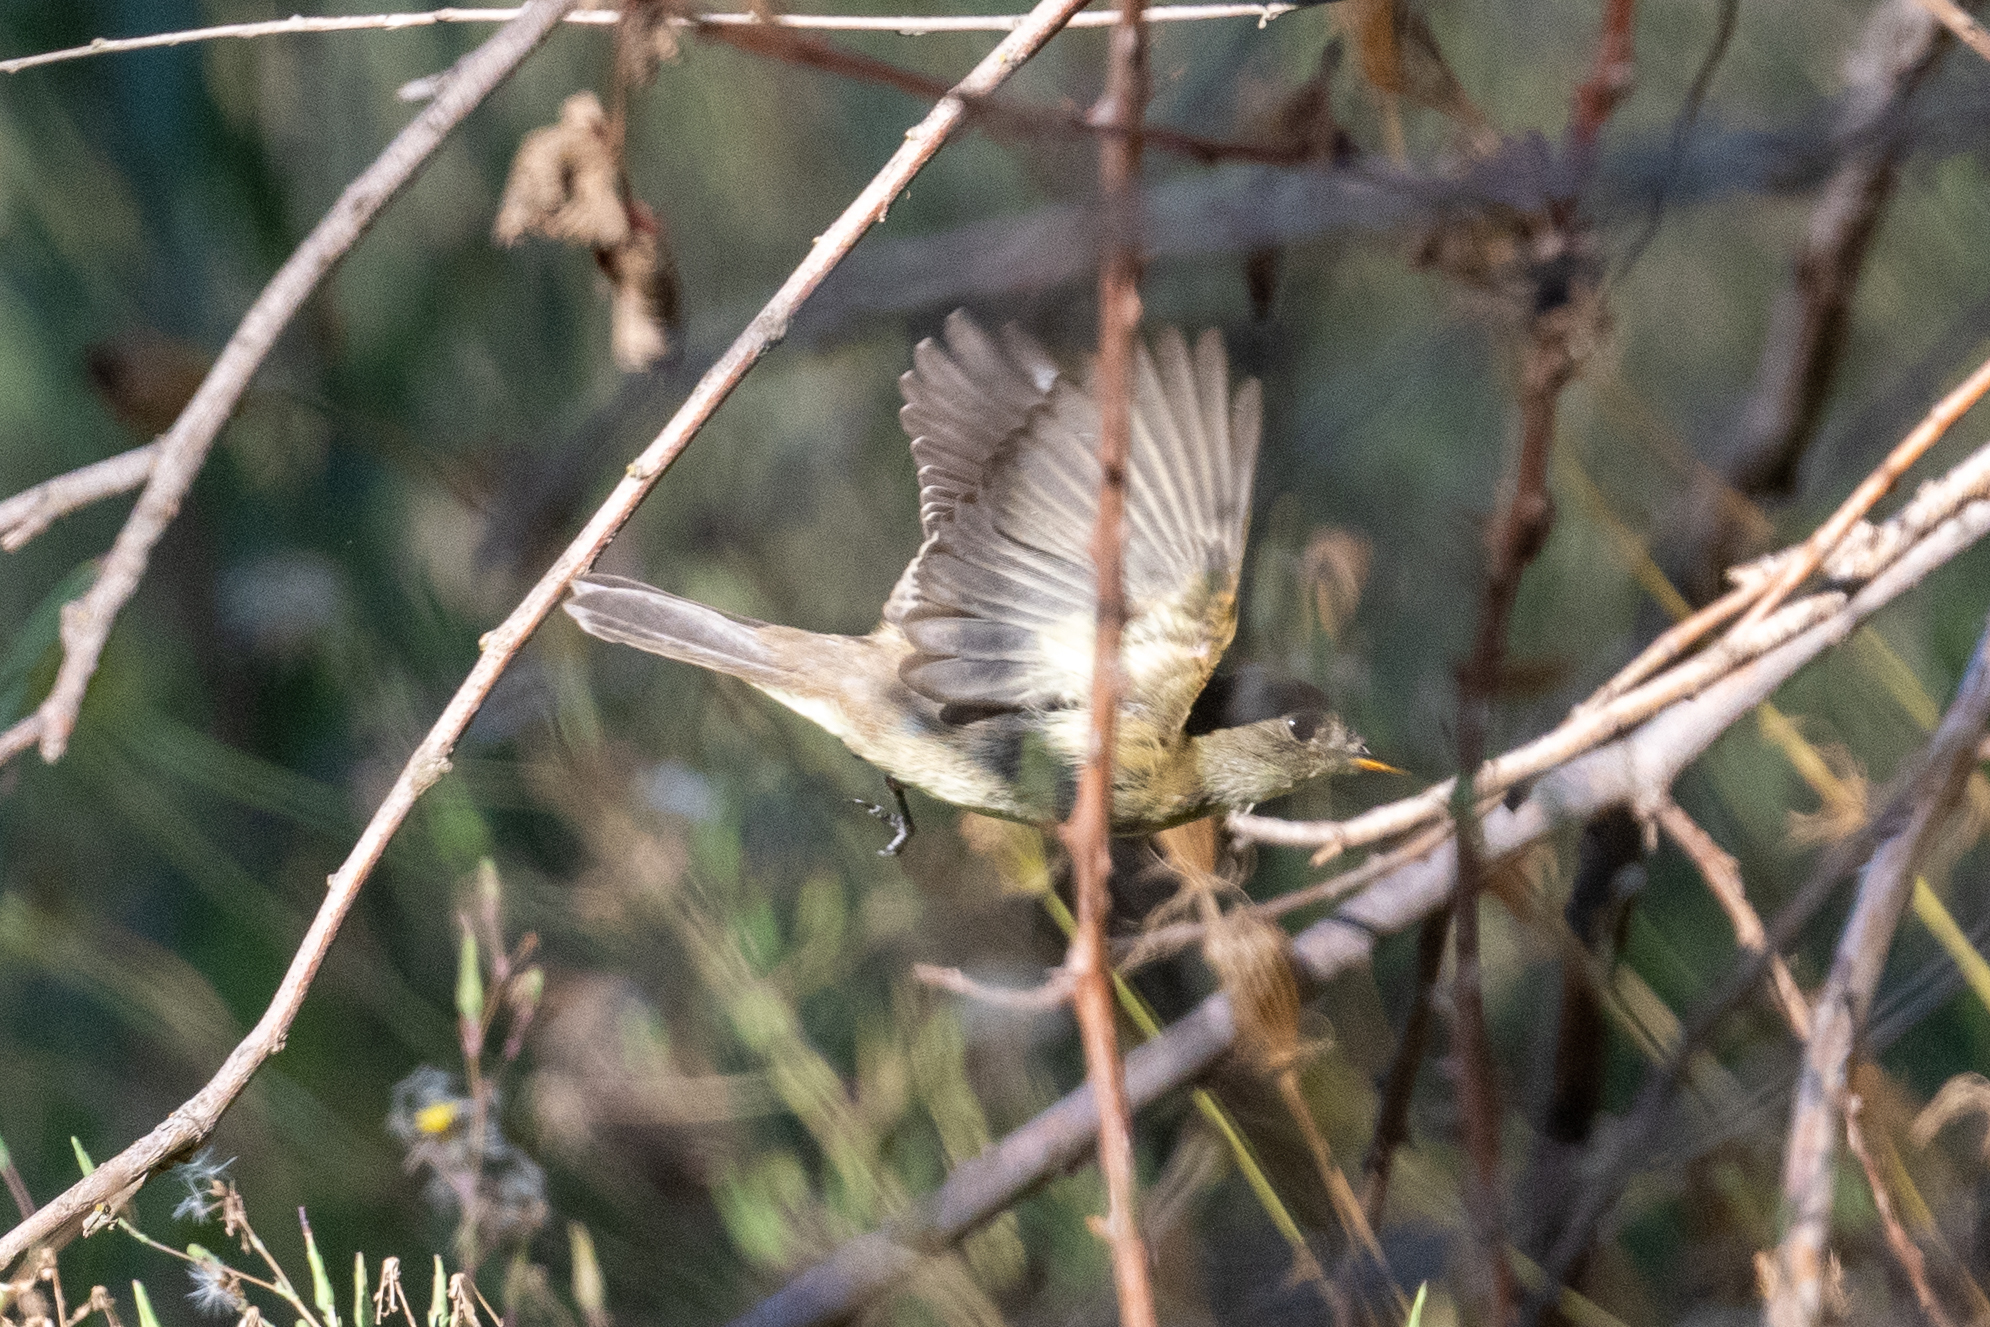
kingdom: Animalia
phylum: Chordata
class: Aves
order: Passeriformes
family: Tyrannidae
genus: Empidonax
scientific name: Empidonax traillii
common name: Willow flycatcher
